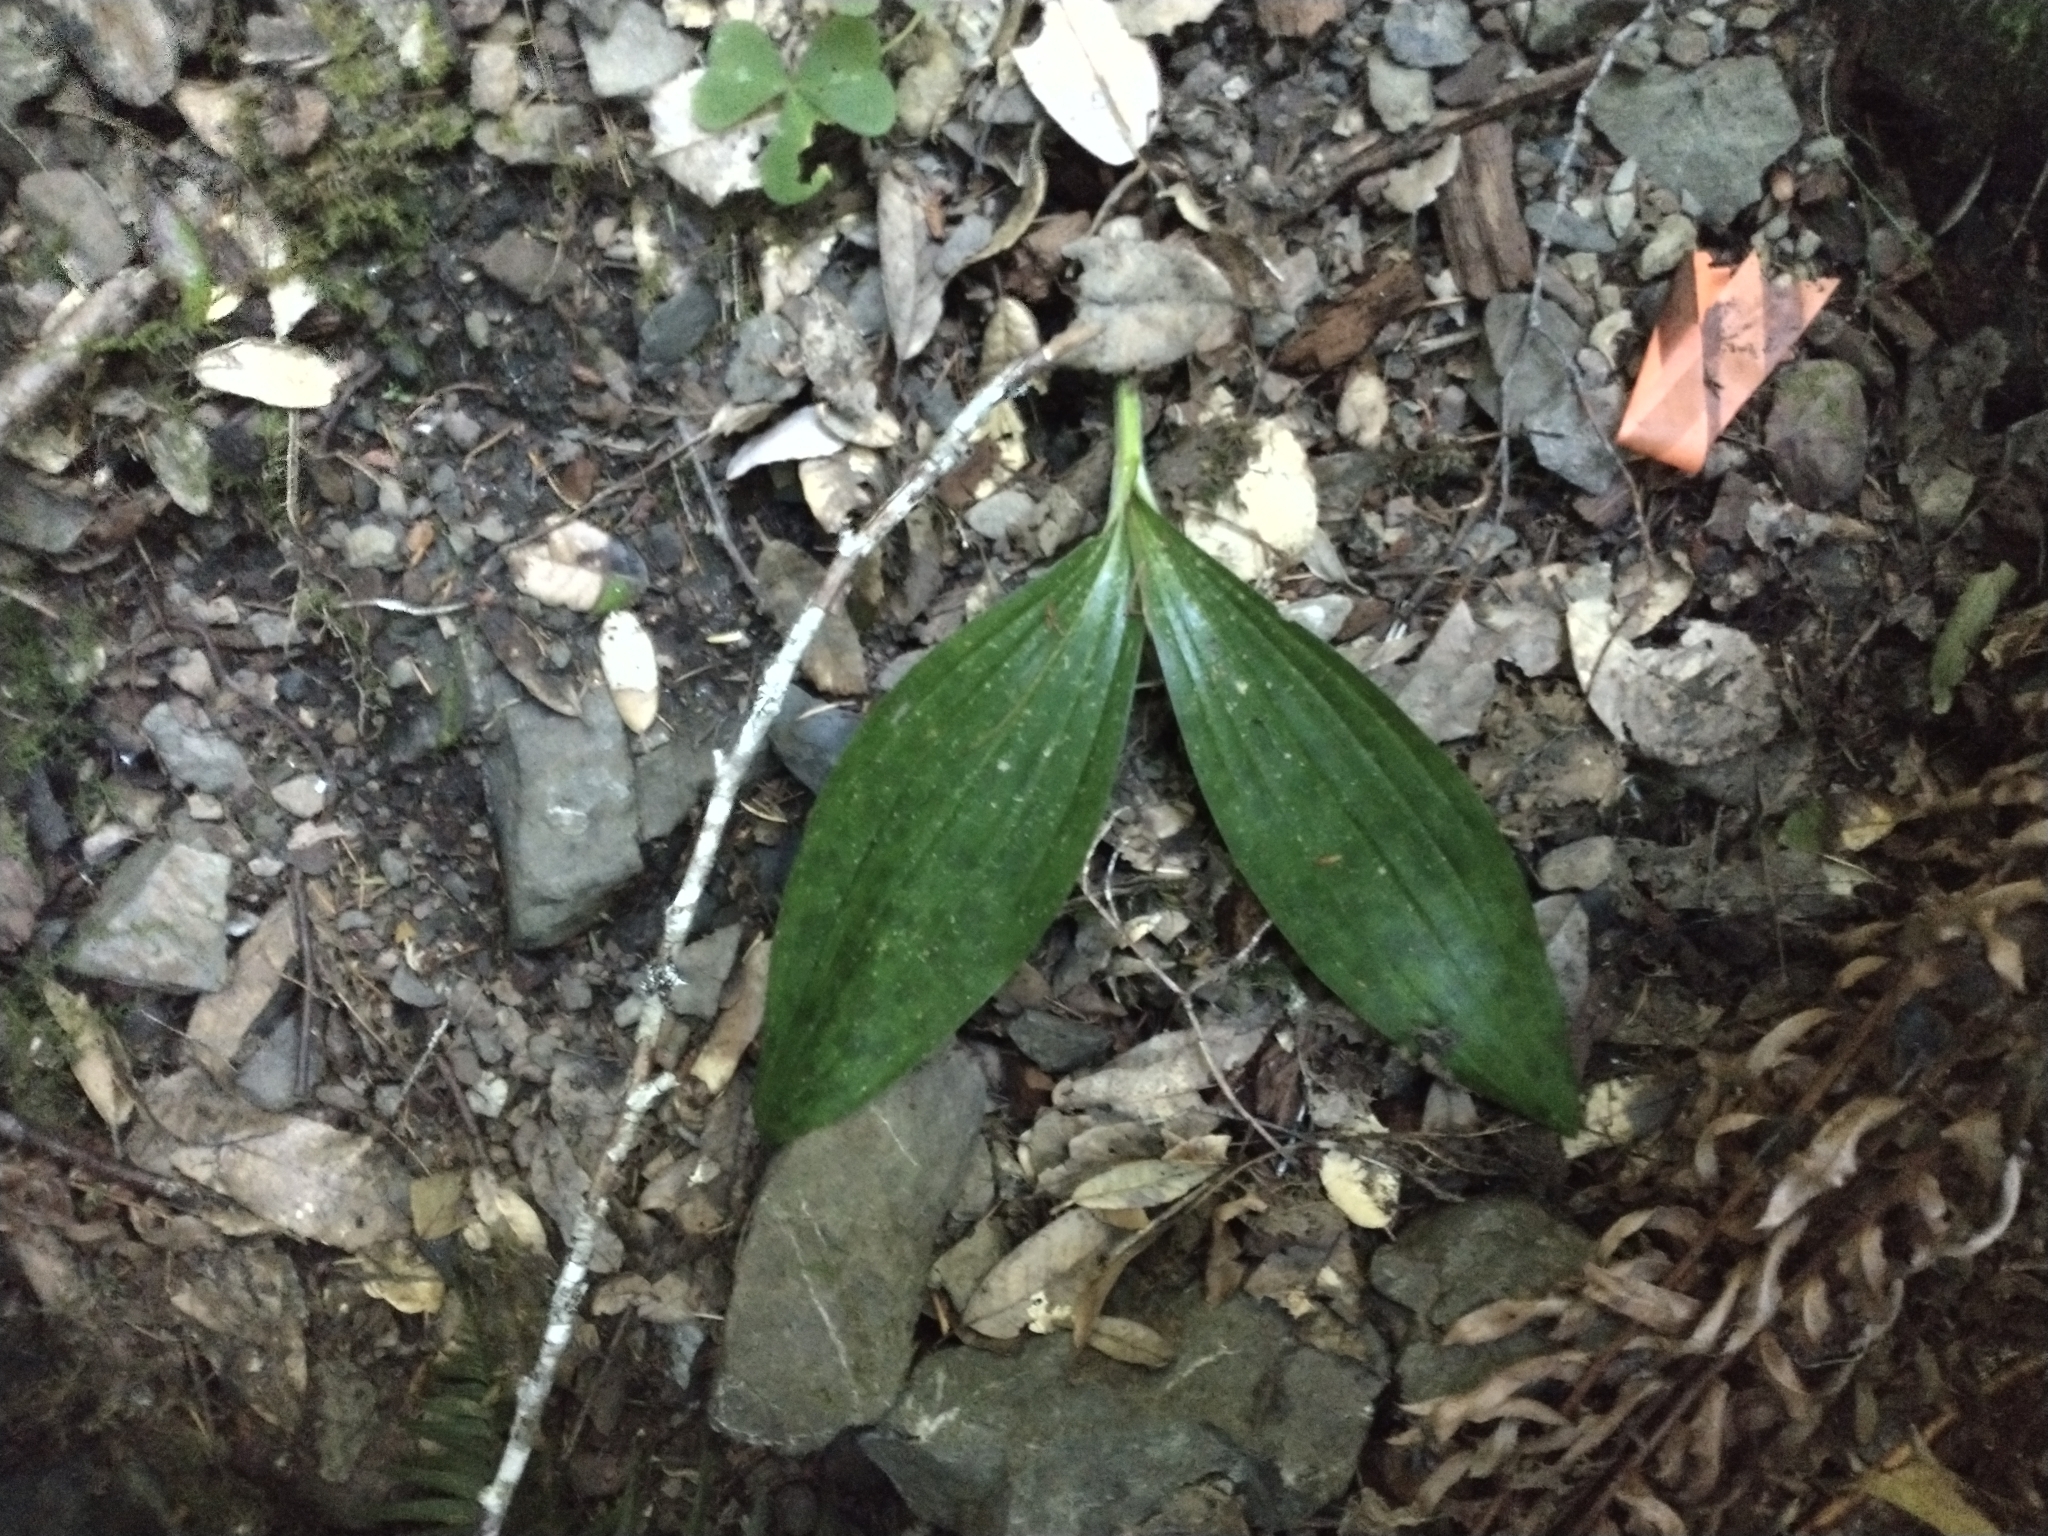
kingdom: Plantae
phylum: Tracheophyta
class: Liliopsida
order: Liliales
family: Liliaceae
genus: Scoliopus
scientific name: Scoliopus bigelovii
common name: Foetid adder's-tongue
